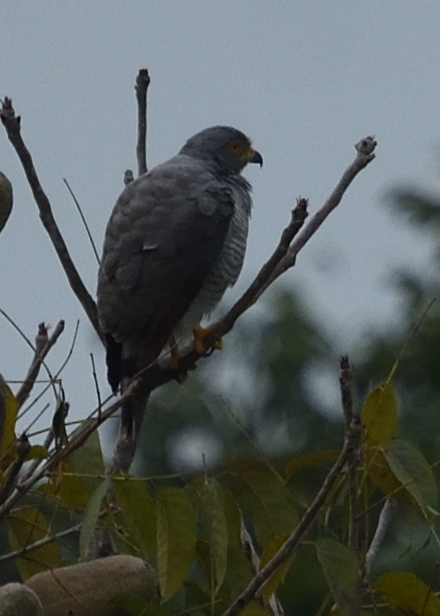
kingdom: Animalia
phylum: Chordata
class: Aves
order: Accipitriformes
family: Accipitridae
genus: Rupornis
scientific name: Rupornis magnirostris
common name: Roadside hawk
